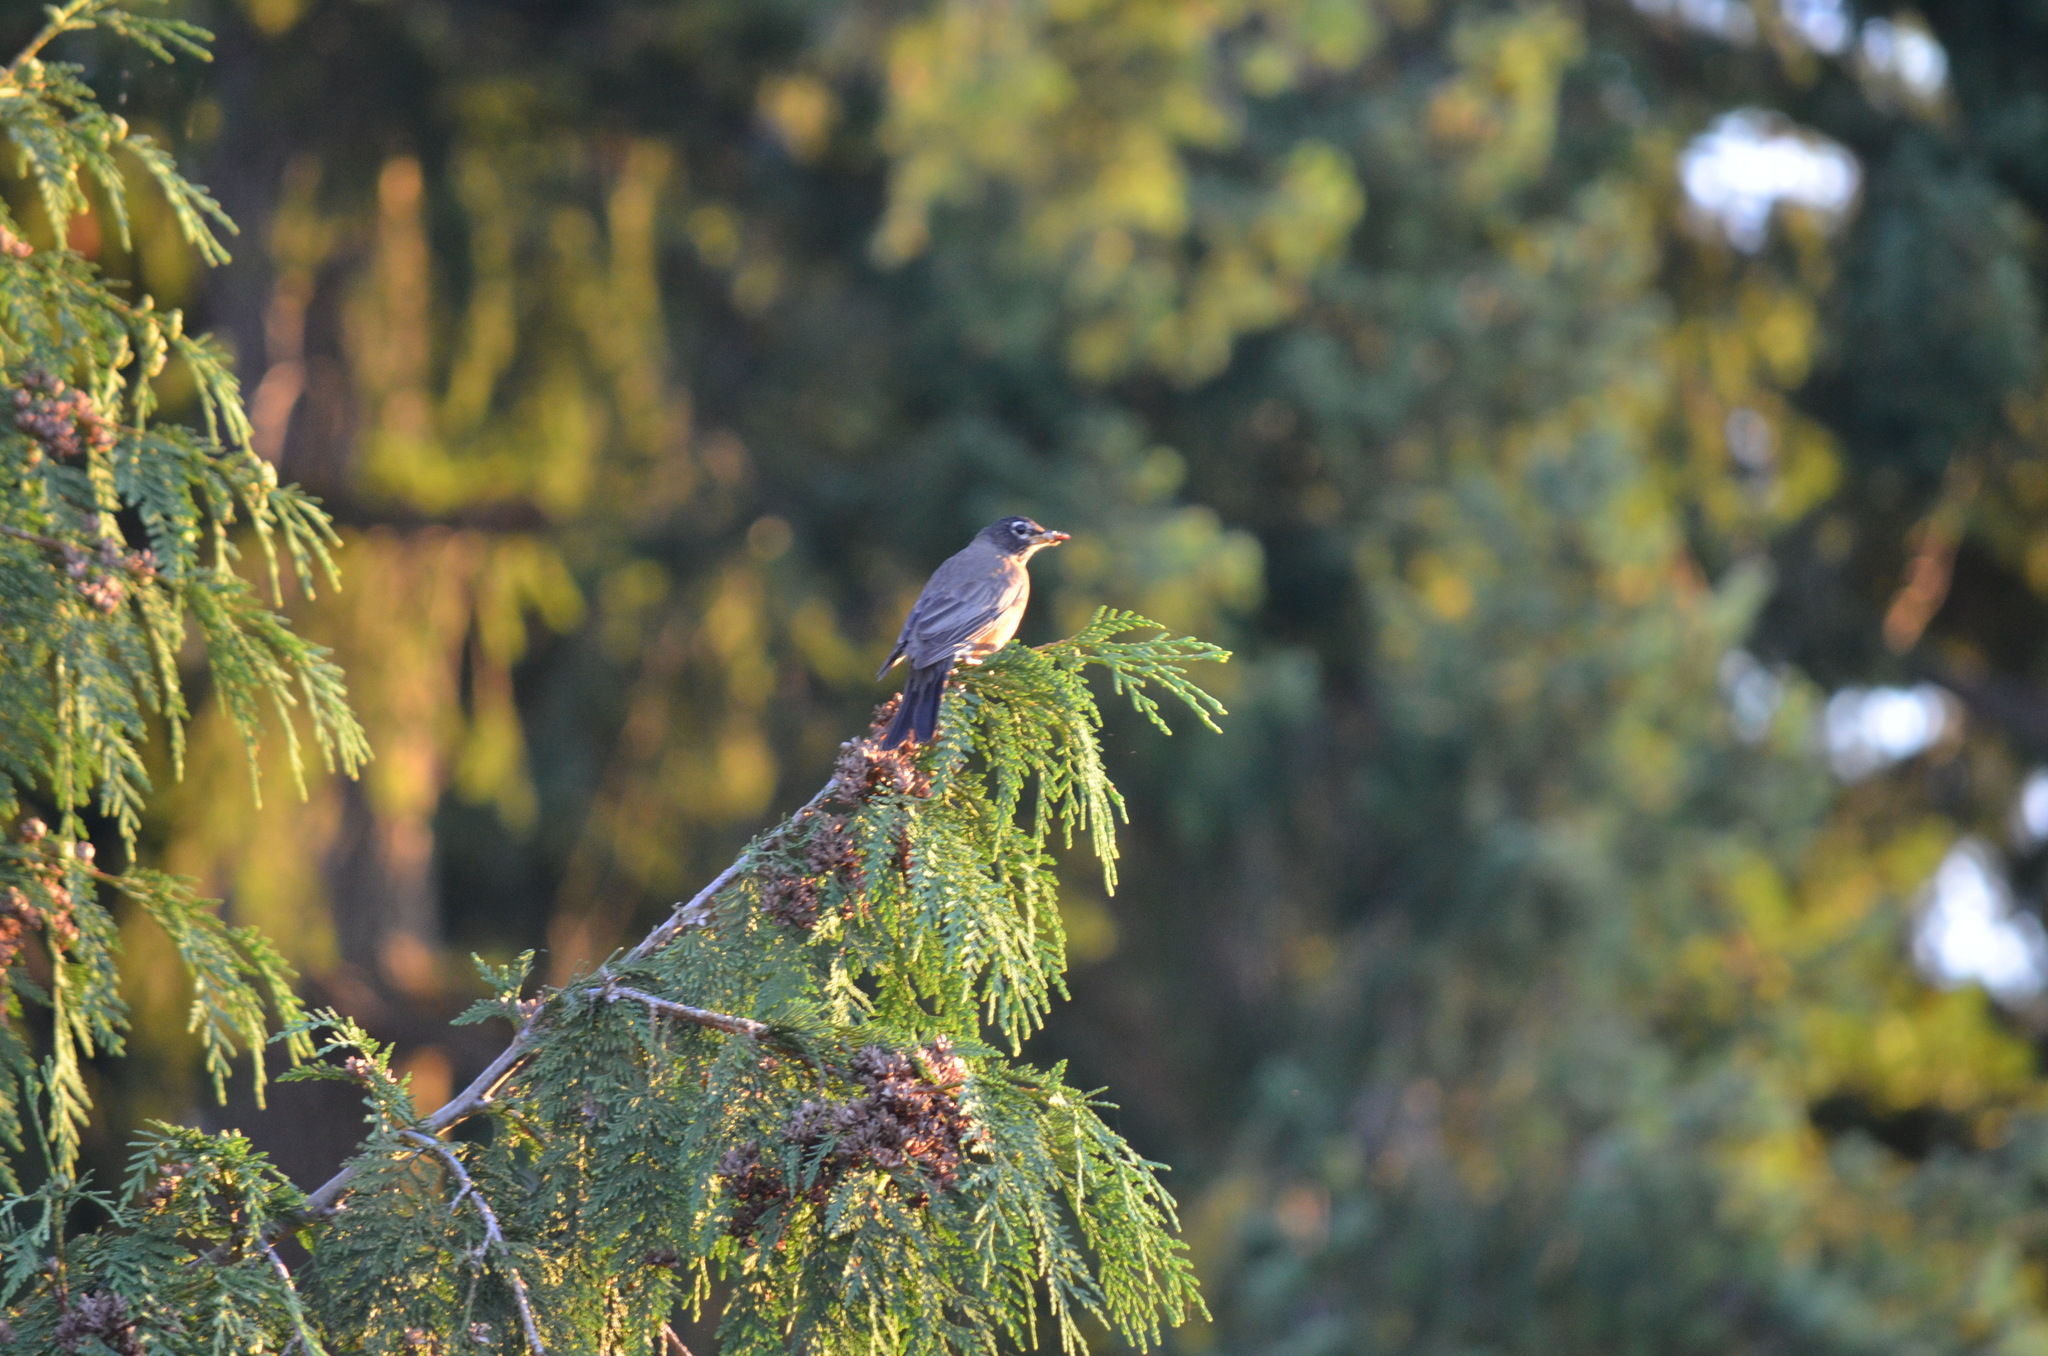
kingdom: Animalia
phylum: Chordata
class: Aves
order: Passeriformes
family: Turdidae
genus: Turdus
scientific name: Turdus migratorius
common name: American robin
